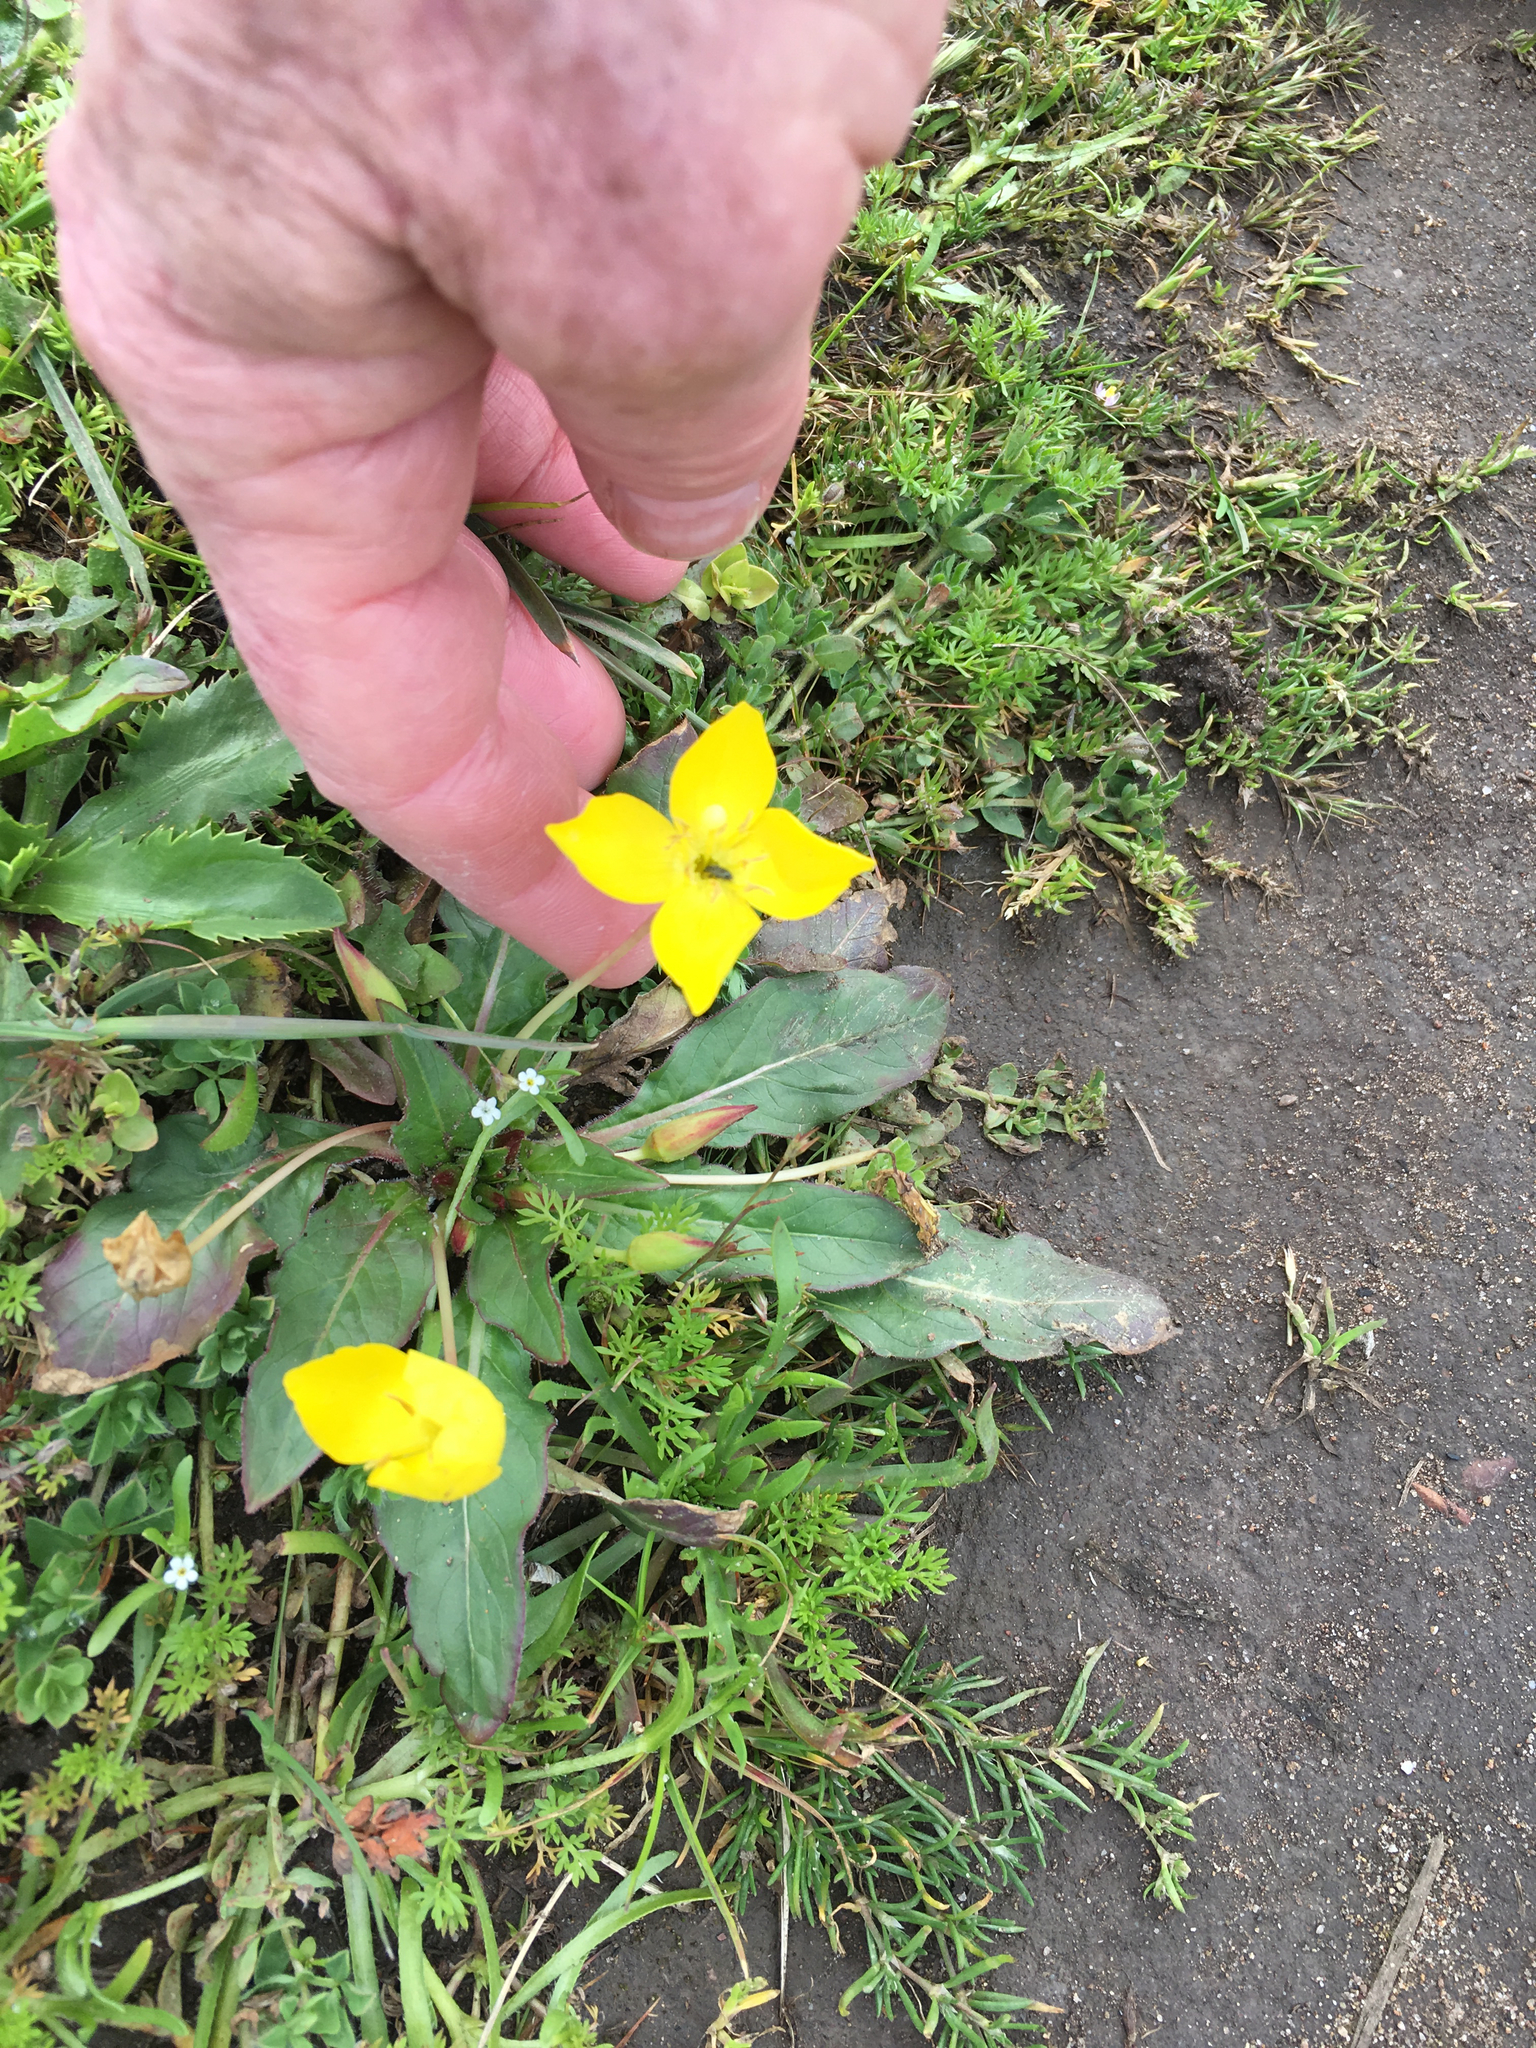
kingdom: Plantae
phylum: Tracheophyta
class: Magnoliopsida
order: Myrtales
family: Onagraceae
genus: Taraxia
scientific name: Taraxia ovata
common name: Goldeneggs
